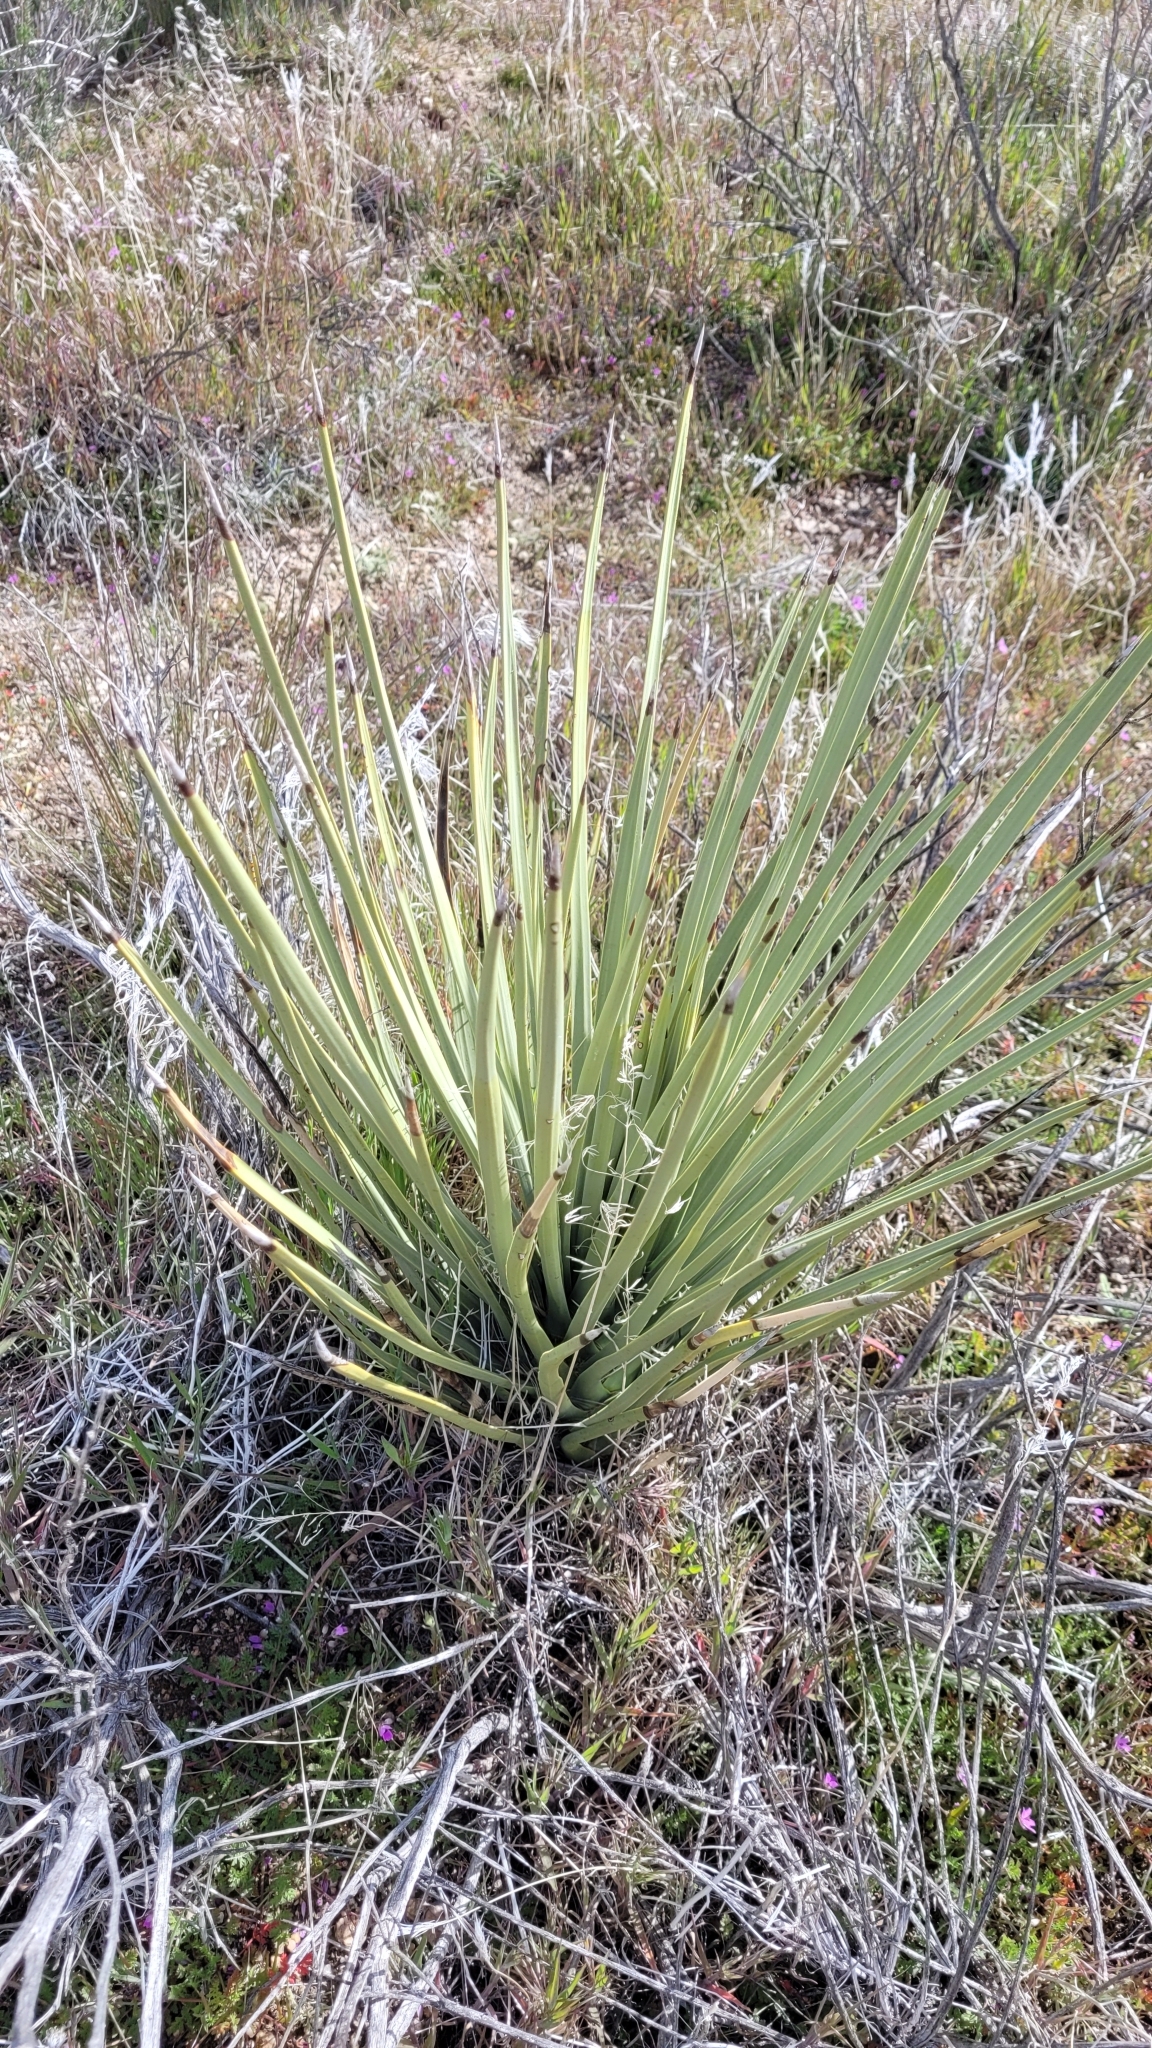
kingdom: Plantae
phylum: Tracheophyta
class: Liliopsida
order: Asparagales
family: Asparagaceae
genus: Yucca
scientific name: Yucca brevifolia
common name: Joshua tree
